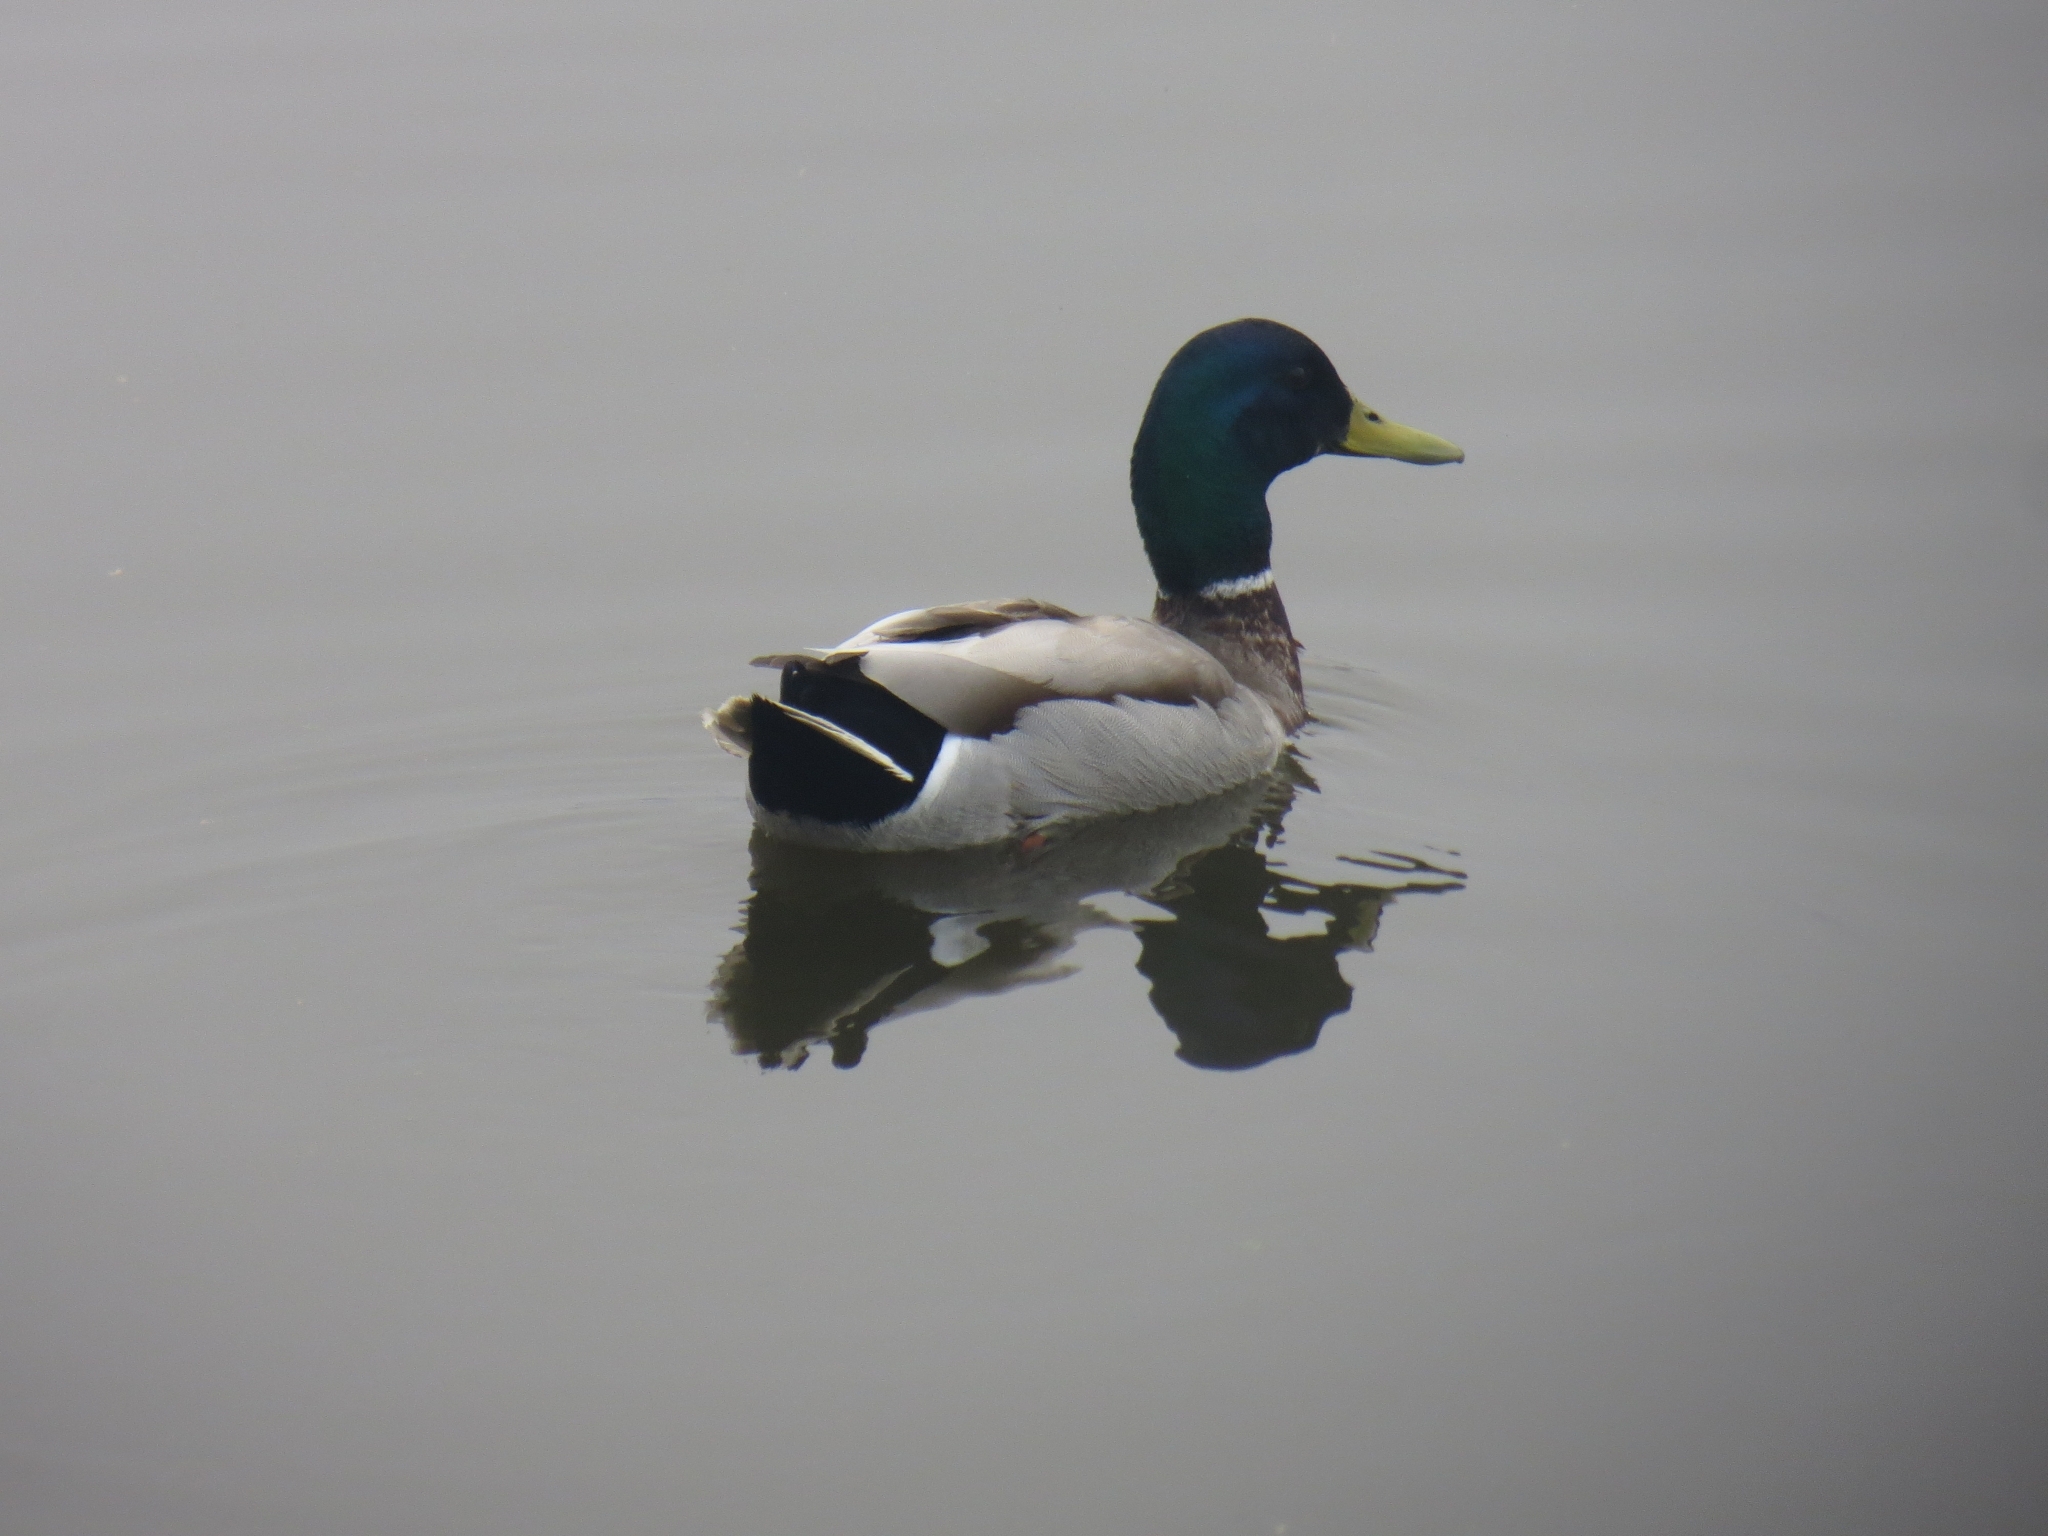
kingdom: Animalia
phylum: Chordata
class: Aves
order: Anseriformes
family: Anatidae
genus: Anas
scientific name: Anas platyrhynchos
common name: Mallard
